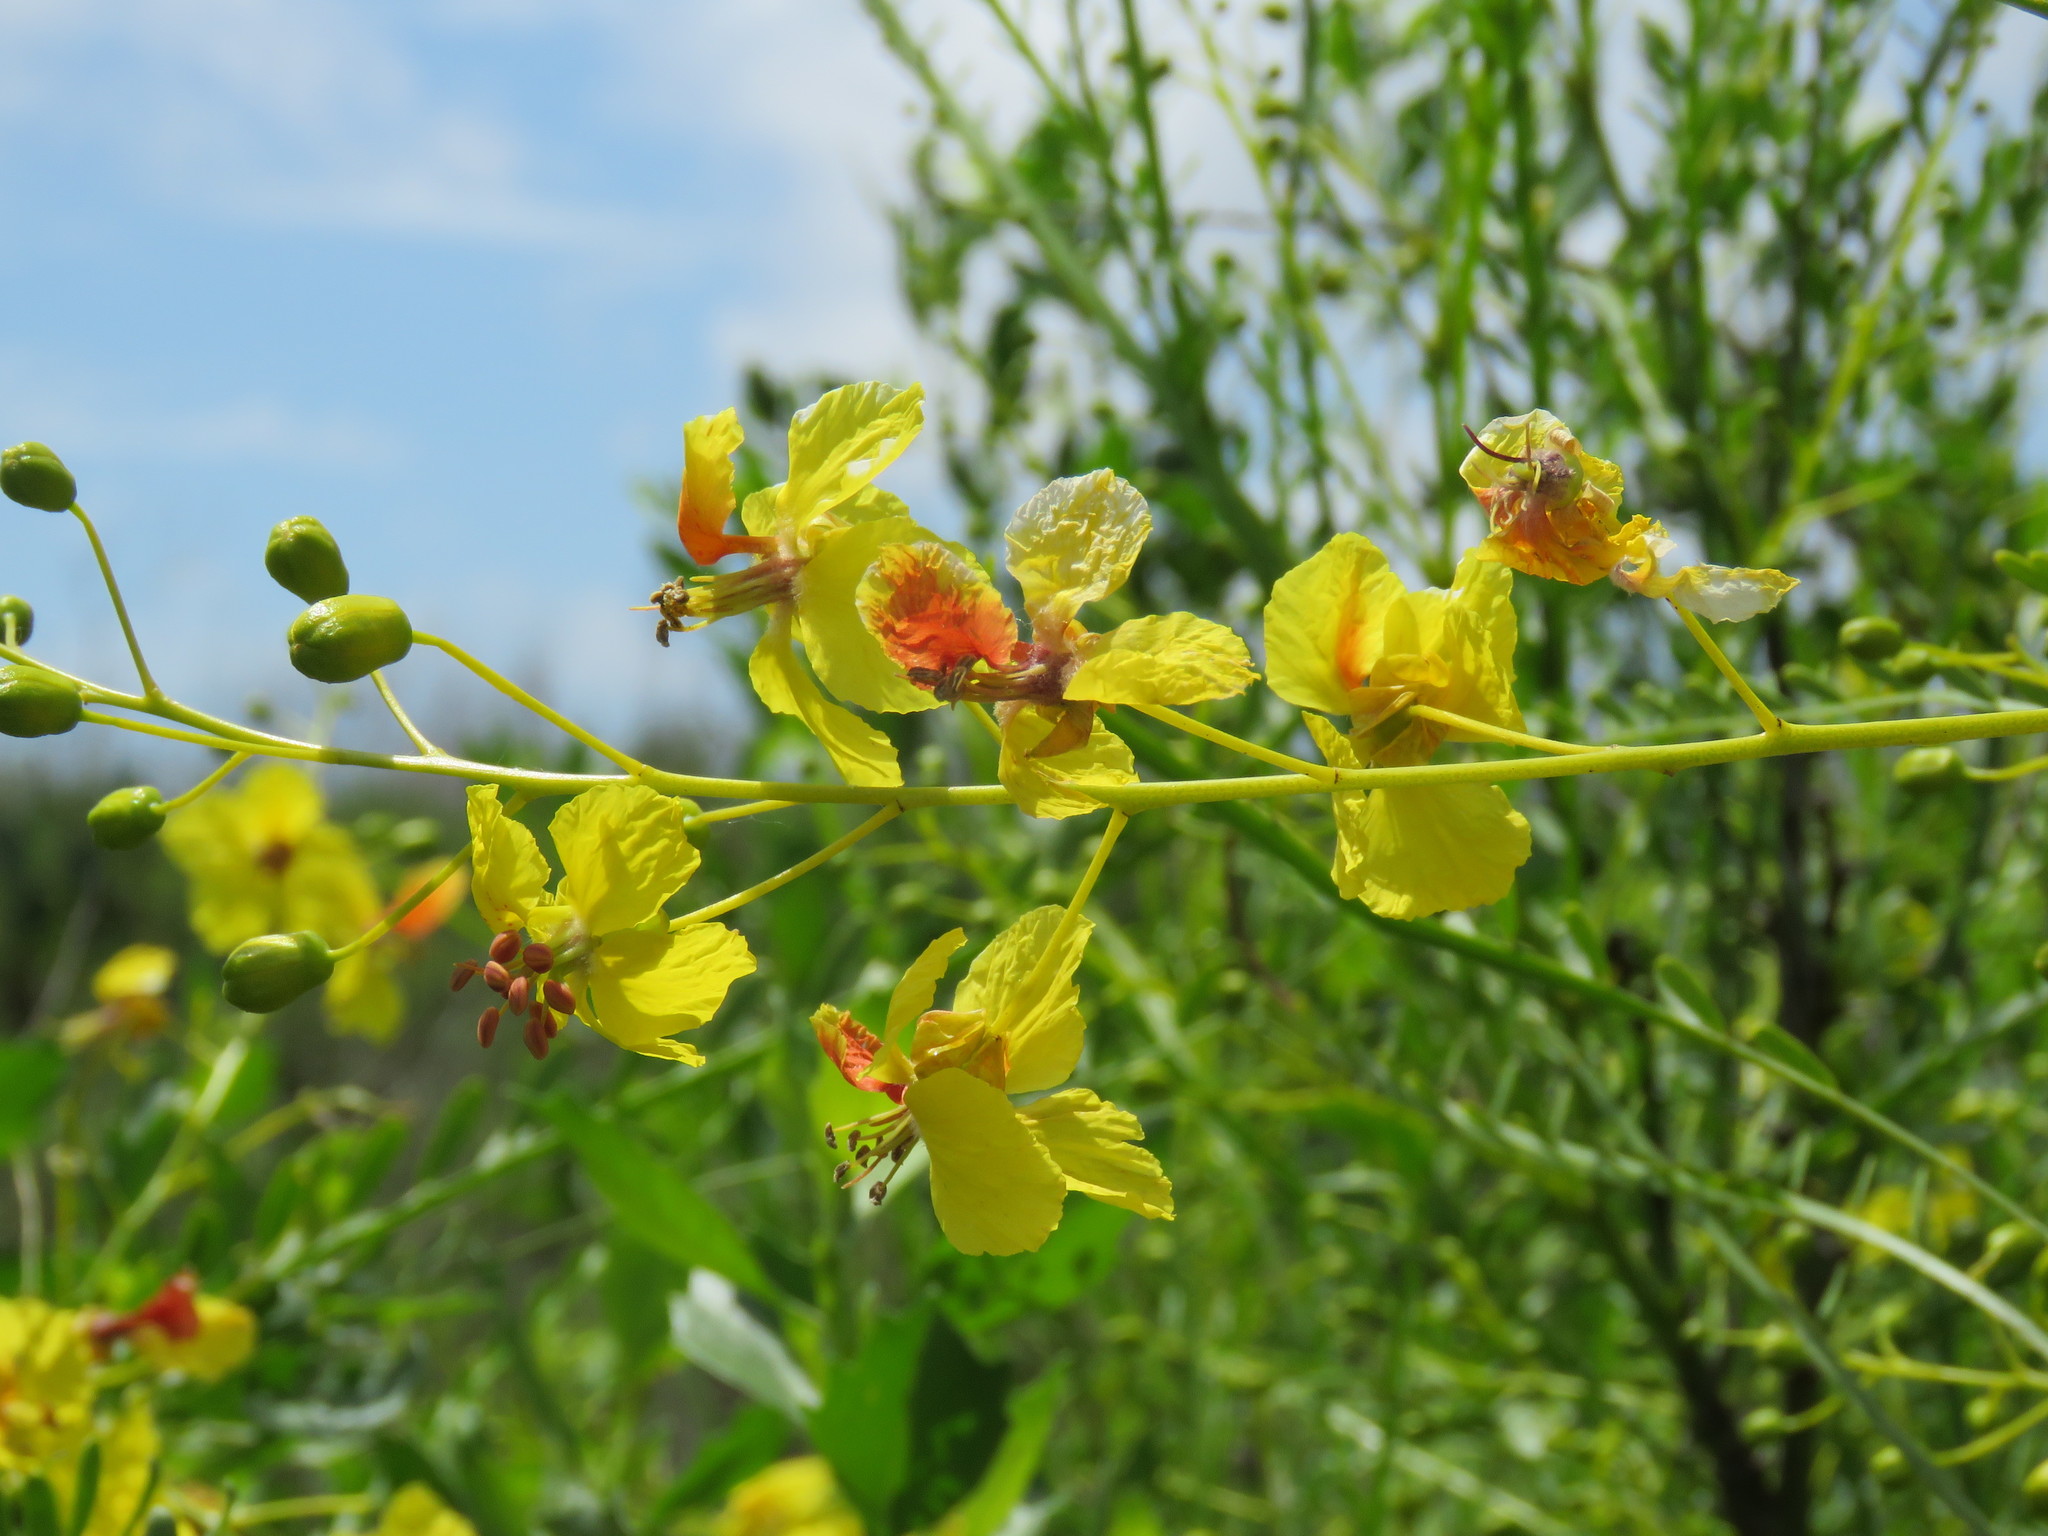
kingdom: Plantae
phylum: Tracheophyta
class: Magnoliopsida
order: Fabales
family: Fabaceae
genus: Parkinsonia
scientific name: Parkinsonia aculeata
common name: Jerusalem thorn
